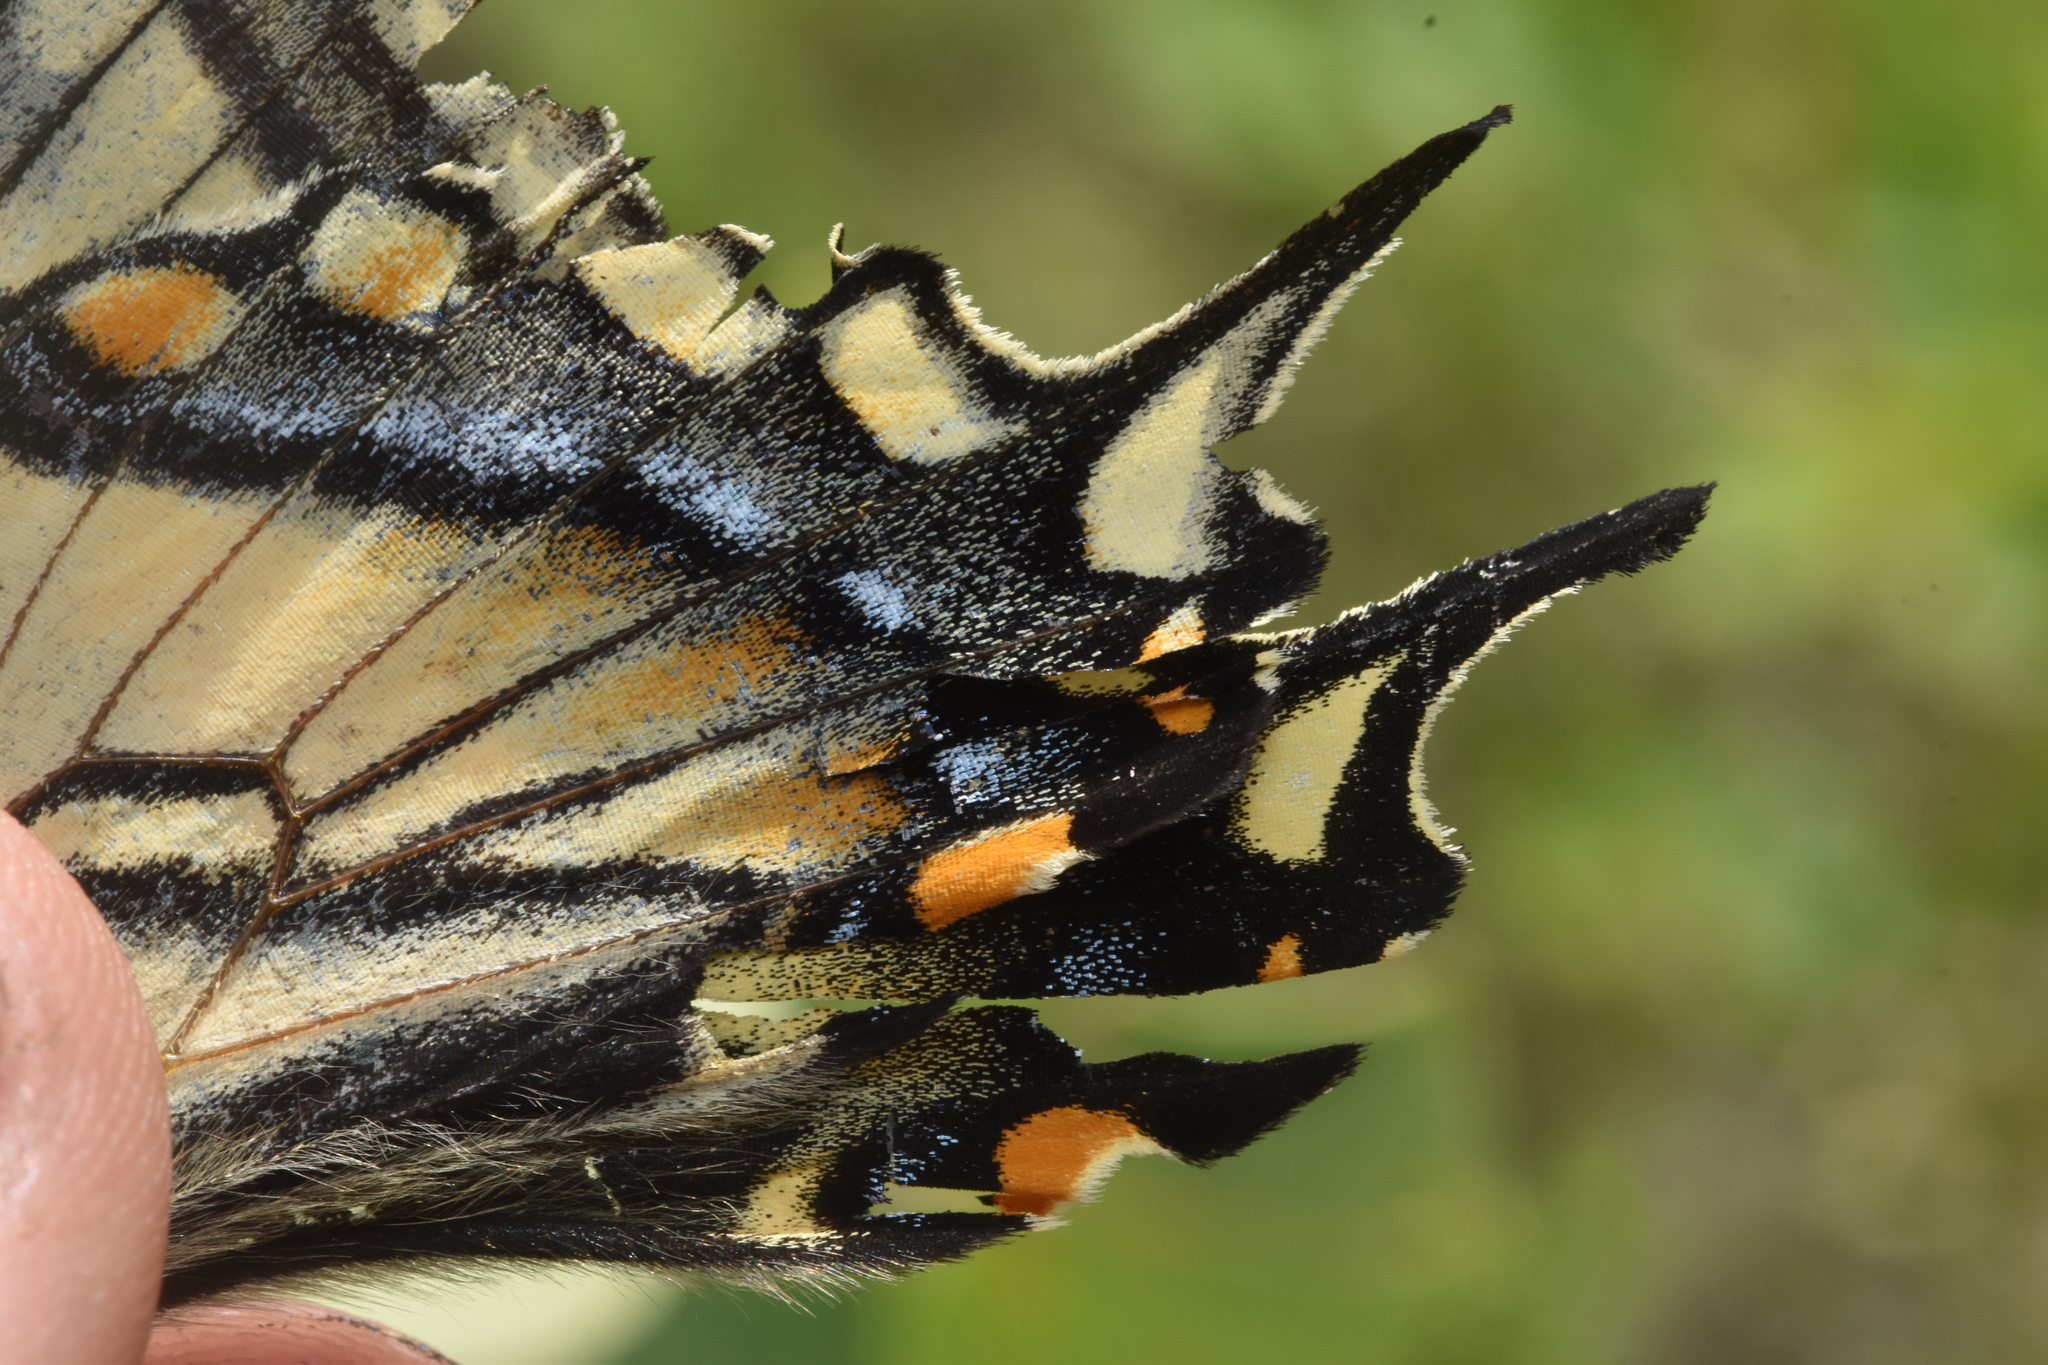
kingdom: Animalia
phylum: Arthropoda
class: Insecta
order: Lepidoptera
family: Papilionidae
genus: Papilio
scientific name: Papilio canadensis
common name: Canadian tiger swallowtail
